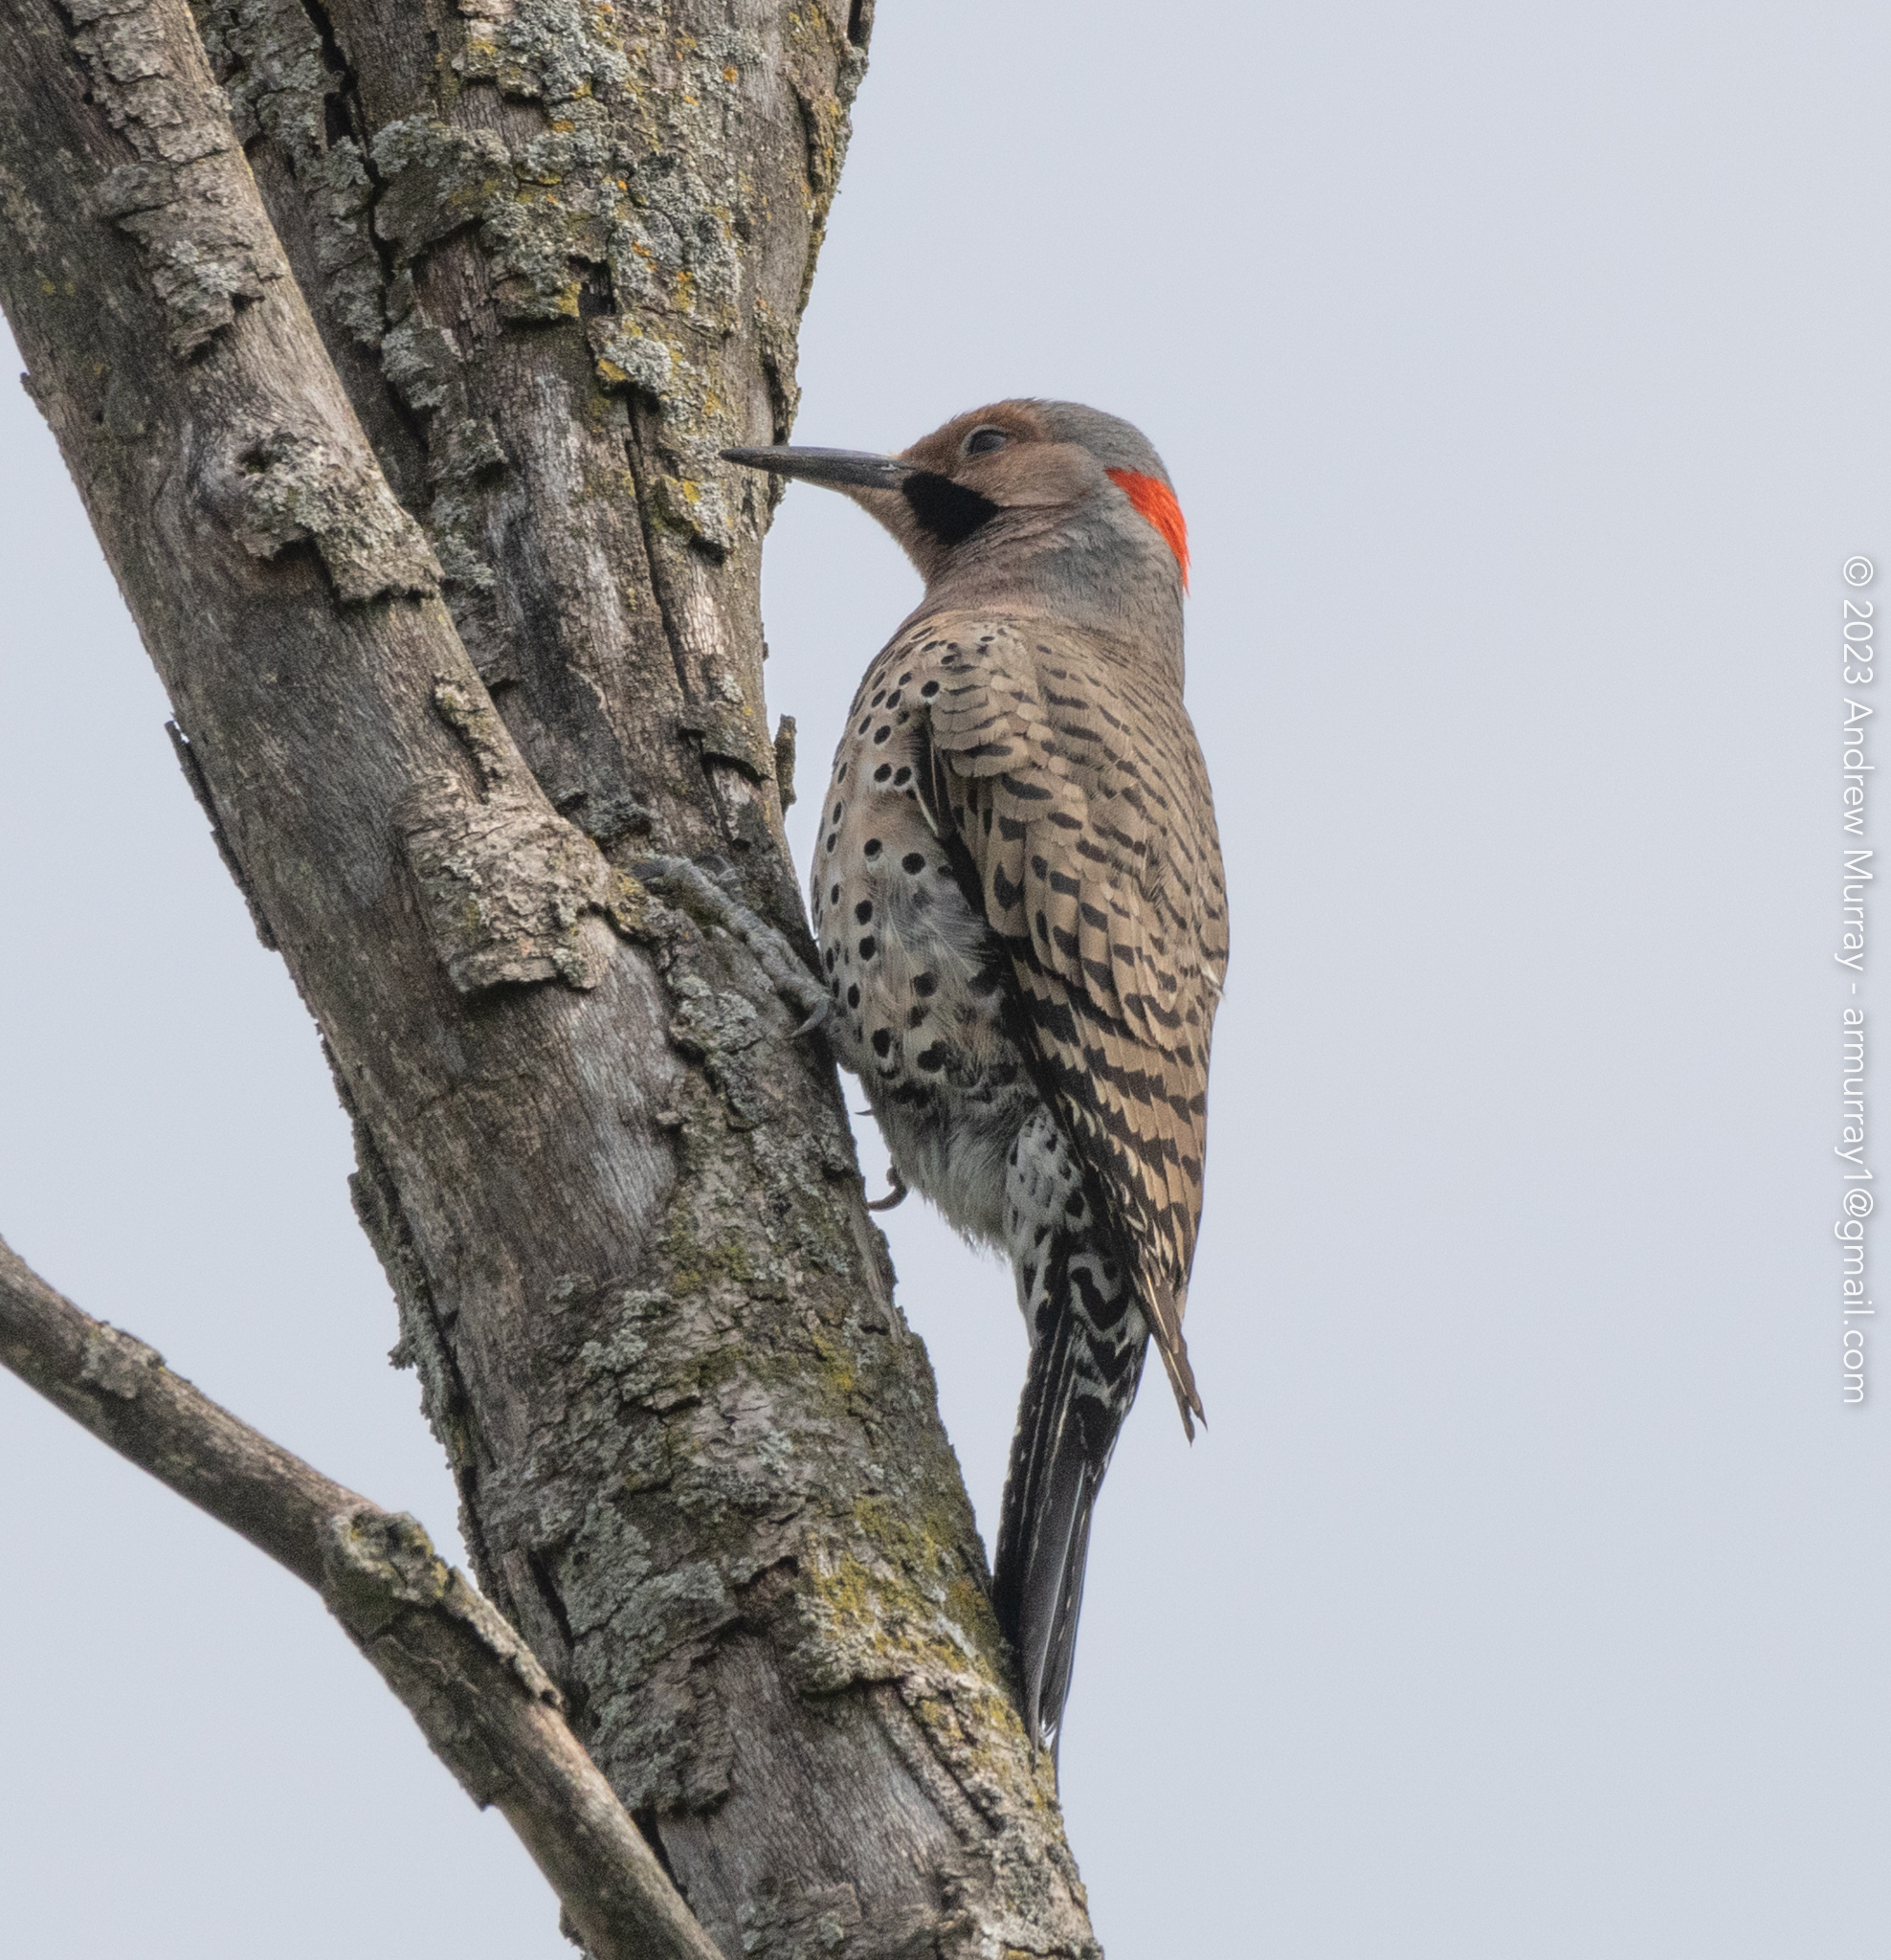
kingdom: Animalia
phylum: Chordata
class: Aves
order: Piciformes
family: Picidae
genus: Colaptes
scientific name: Colaptes auratus
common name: Northern flicker
